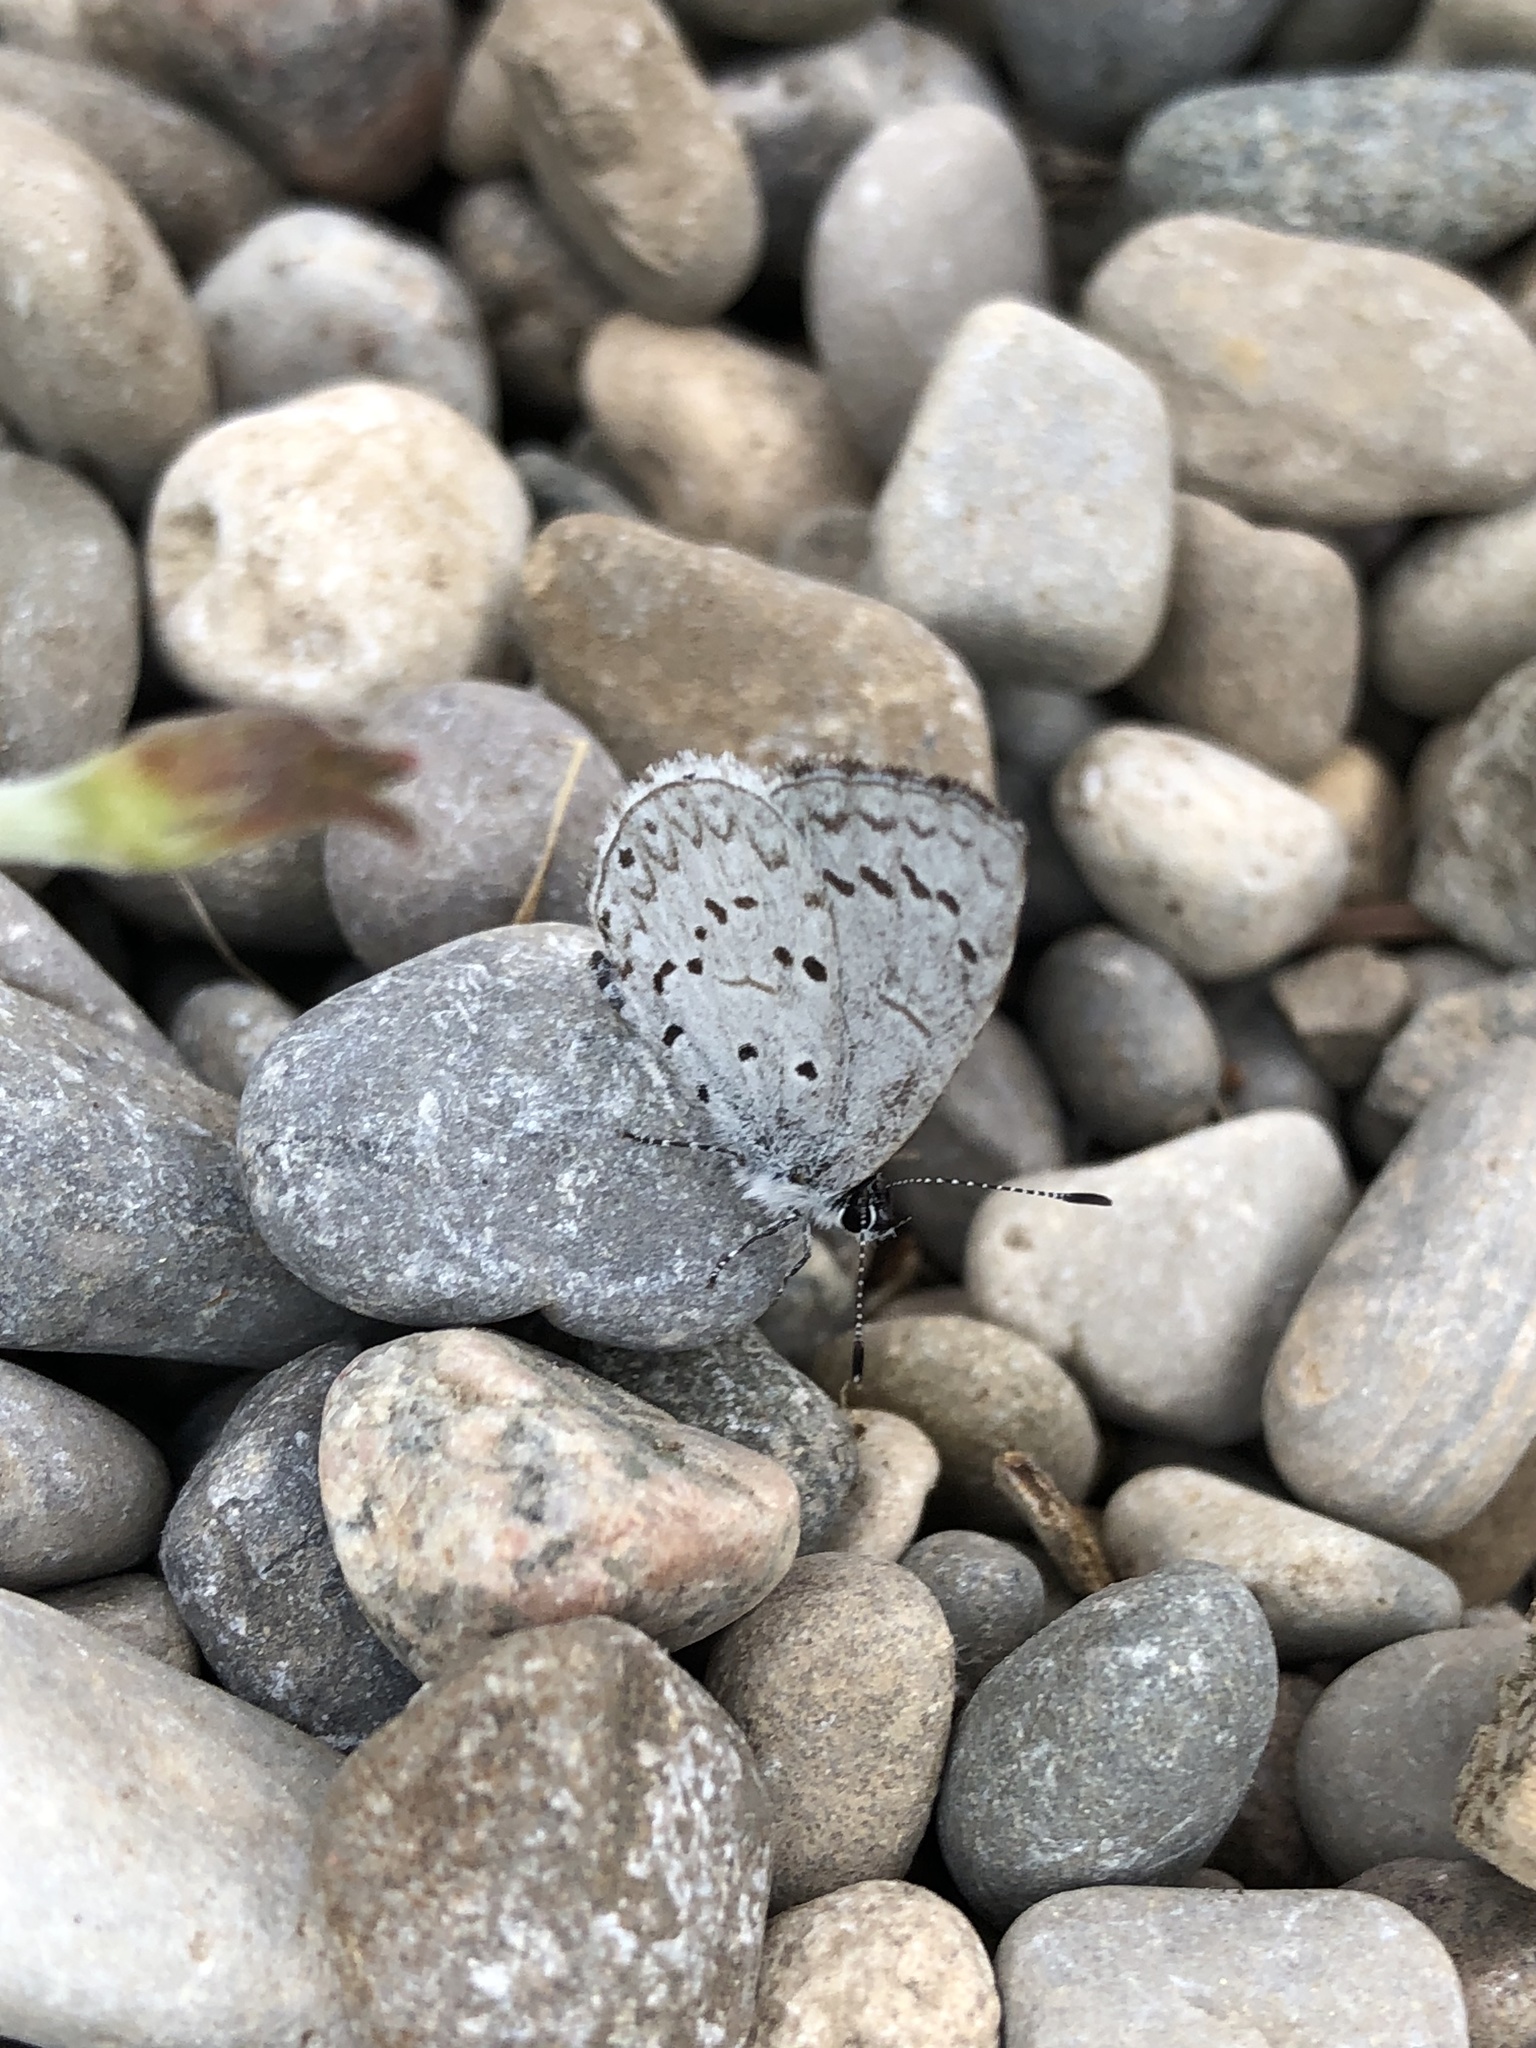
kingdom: Animalia
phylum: Arthropoda
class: Insecta
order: Lepidoptera
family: Lycaenidae
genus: Celastrina
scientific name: Celastrina lucia
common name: Lucia azure
